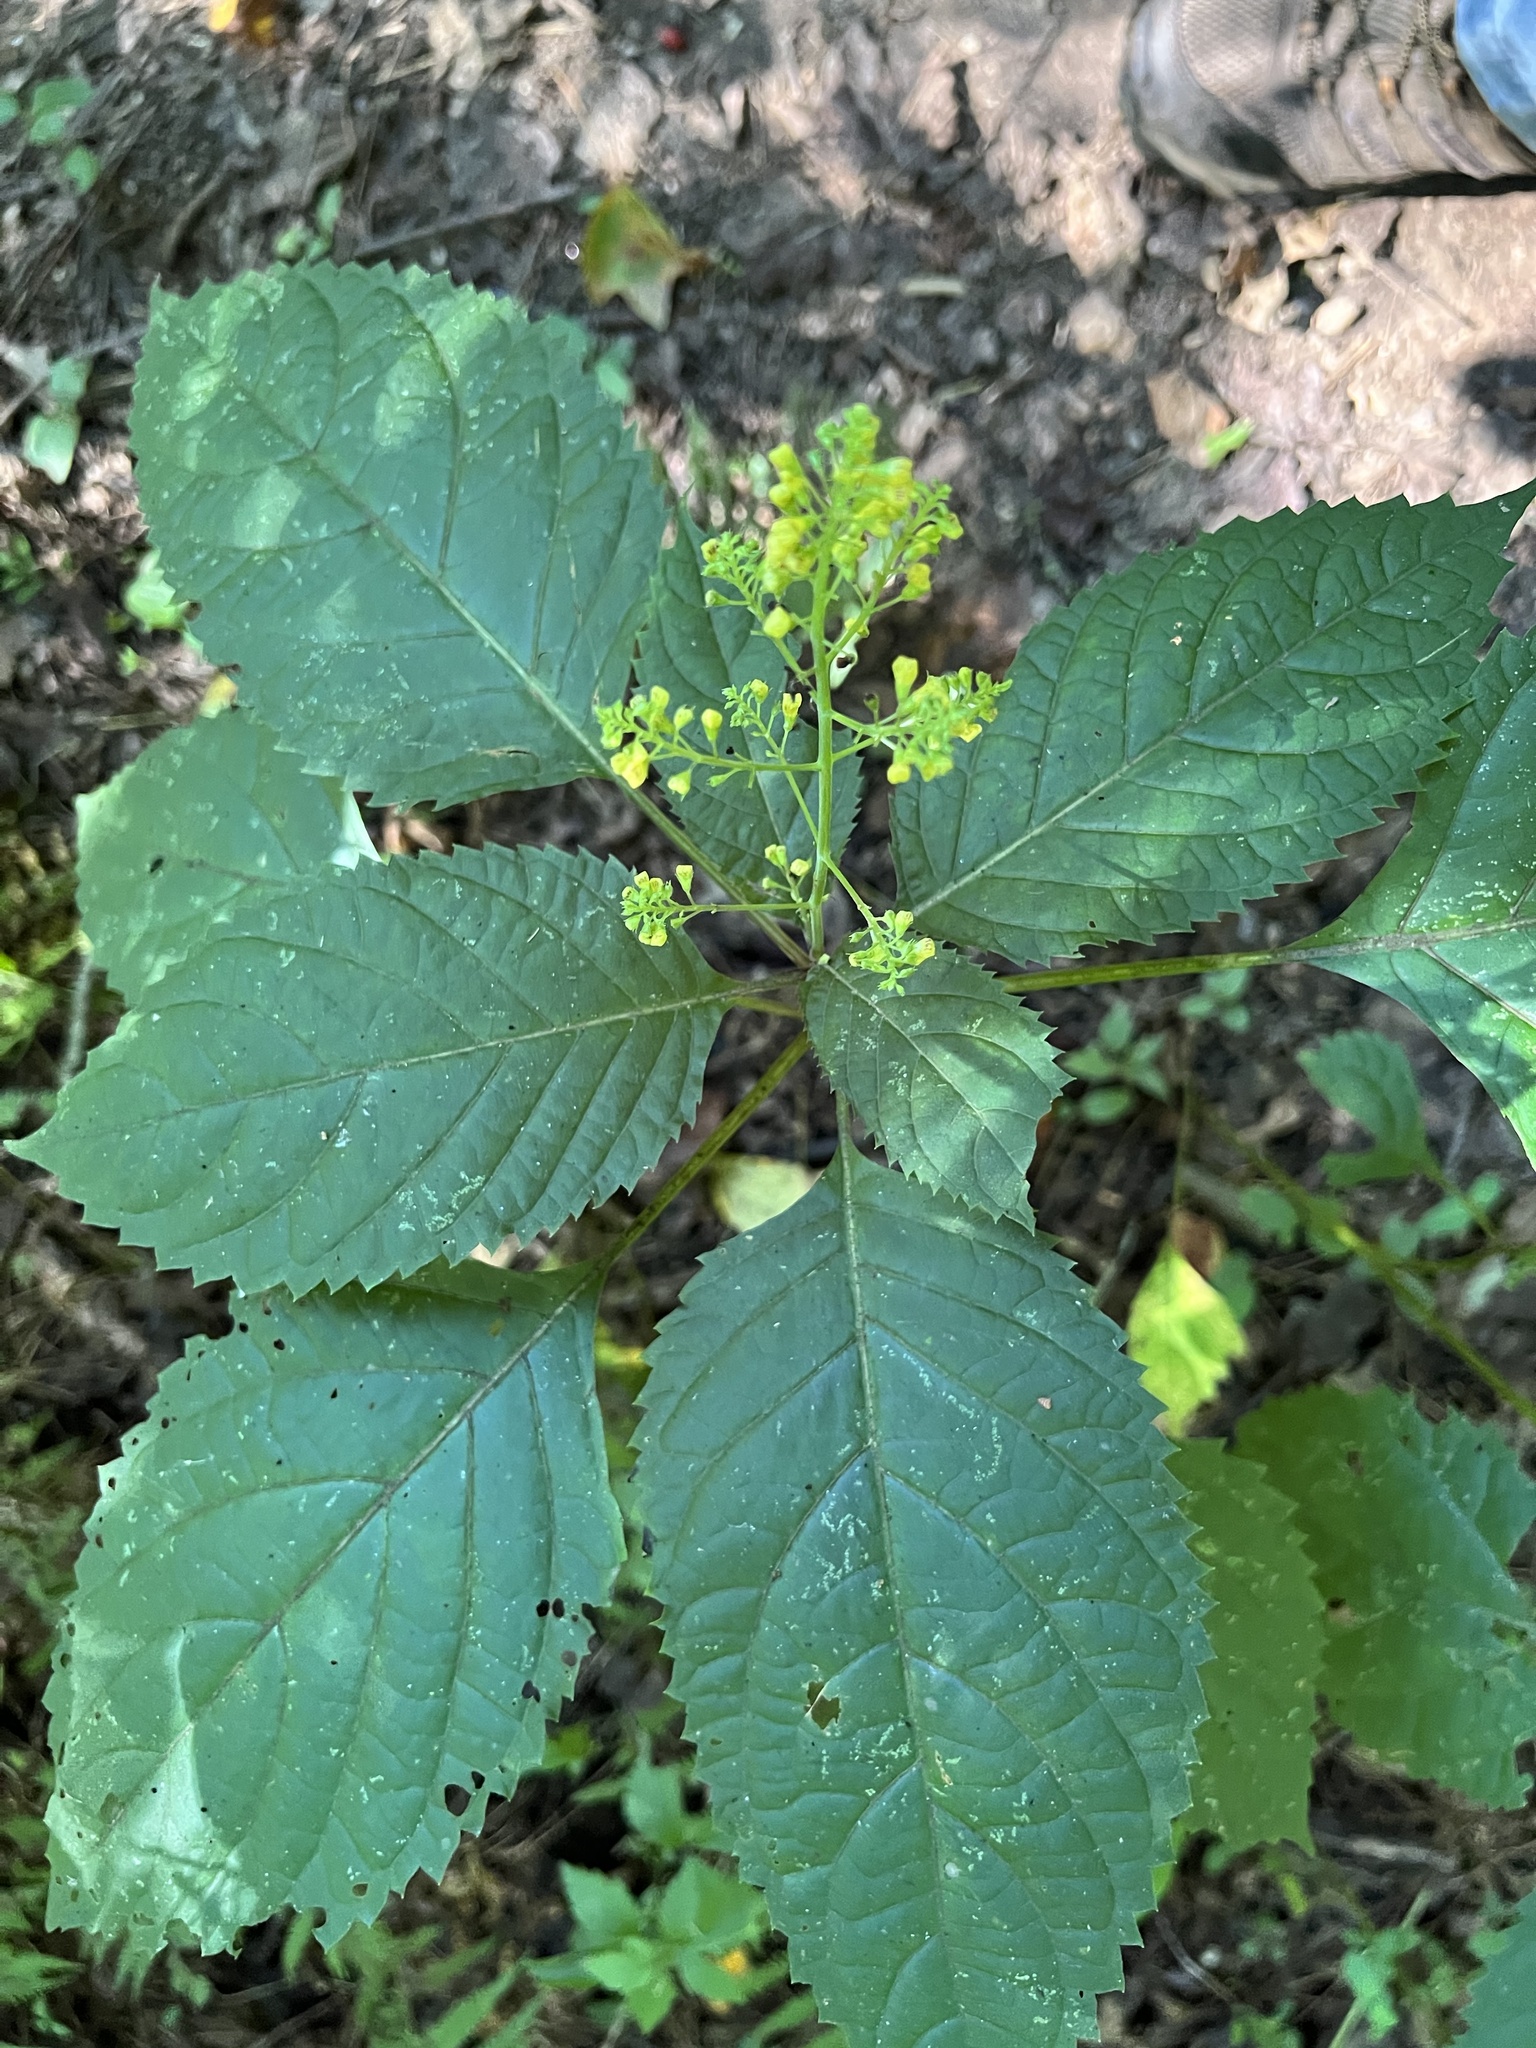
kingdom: Plantae
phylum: Tracheophyta
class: Magnoliopsida
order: Lamiales
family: Lamiaceae
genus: Collinsonia
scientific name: Collinsonia canadensis
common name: Northern horsebalm
